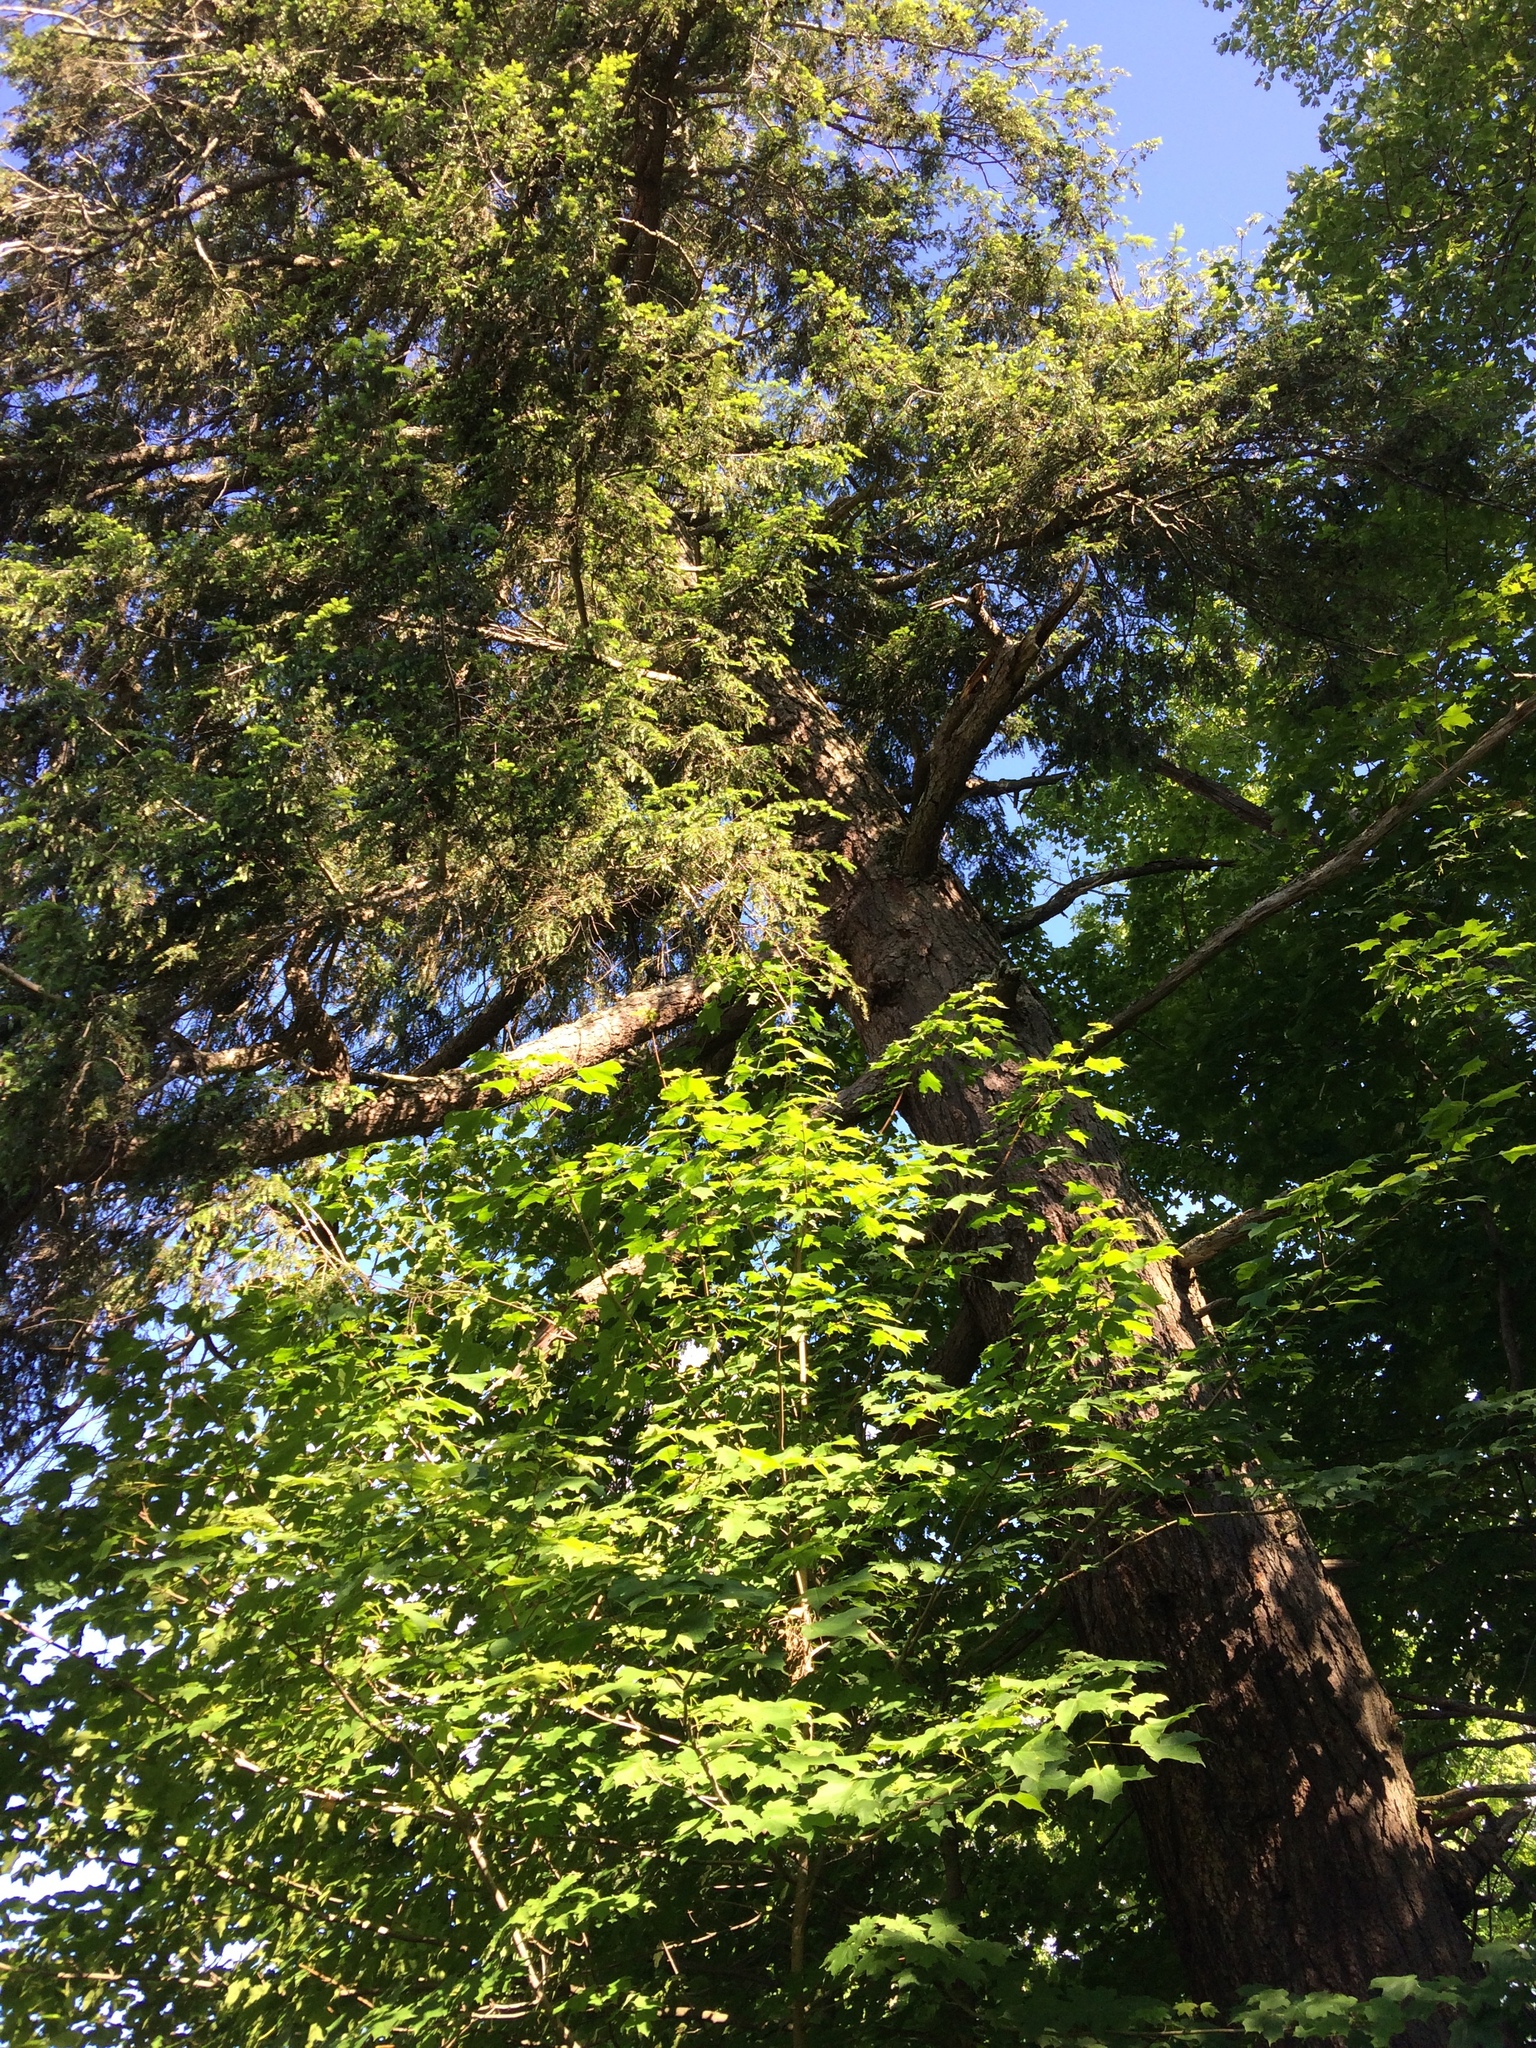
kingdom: Plantae
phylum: Tracheophyta
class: Pinopsida
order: Pinales
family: Pinaceae
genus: Tsuga
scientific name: Tsuga canadensis
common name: Eastern hemlock
